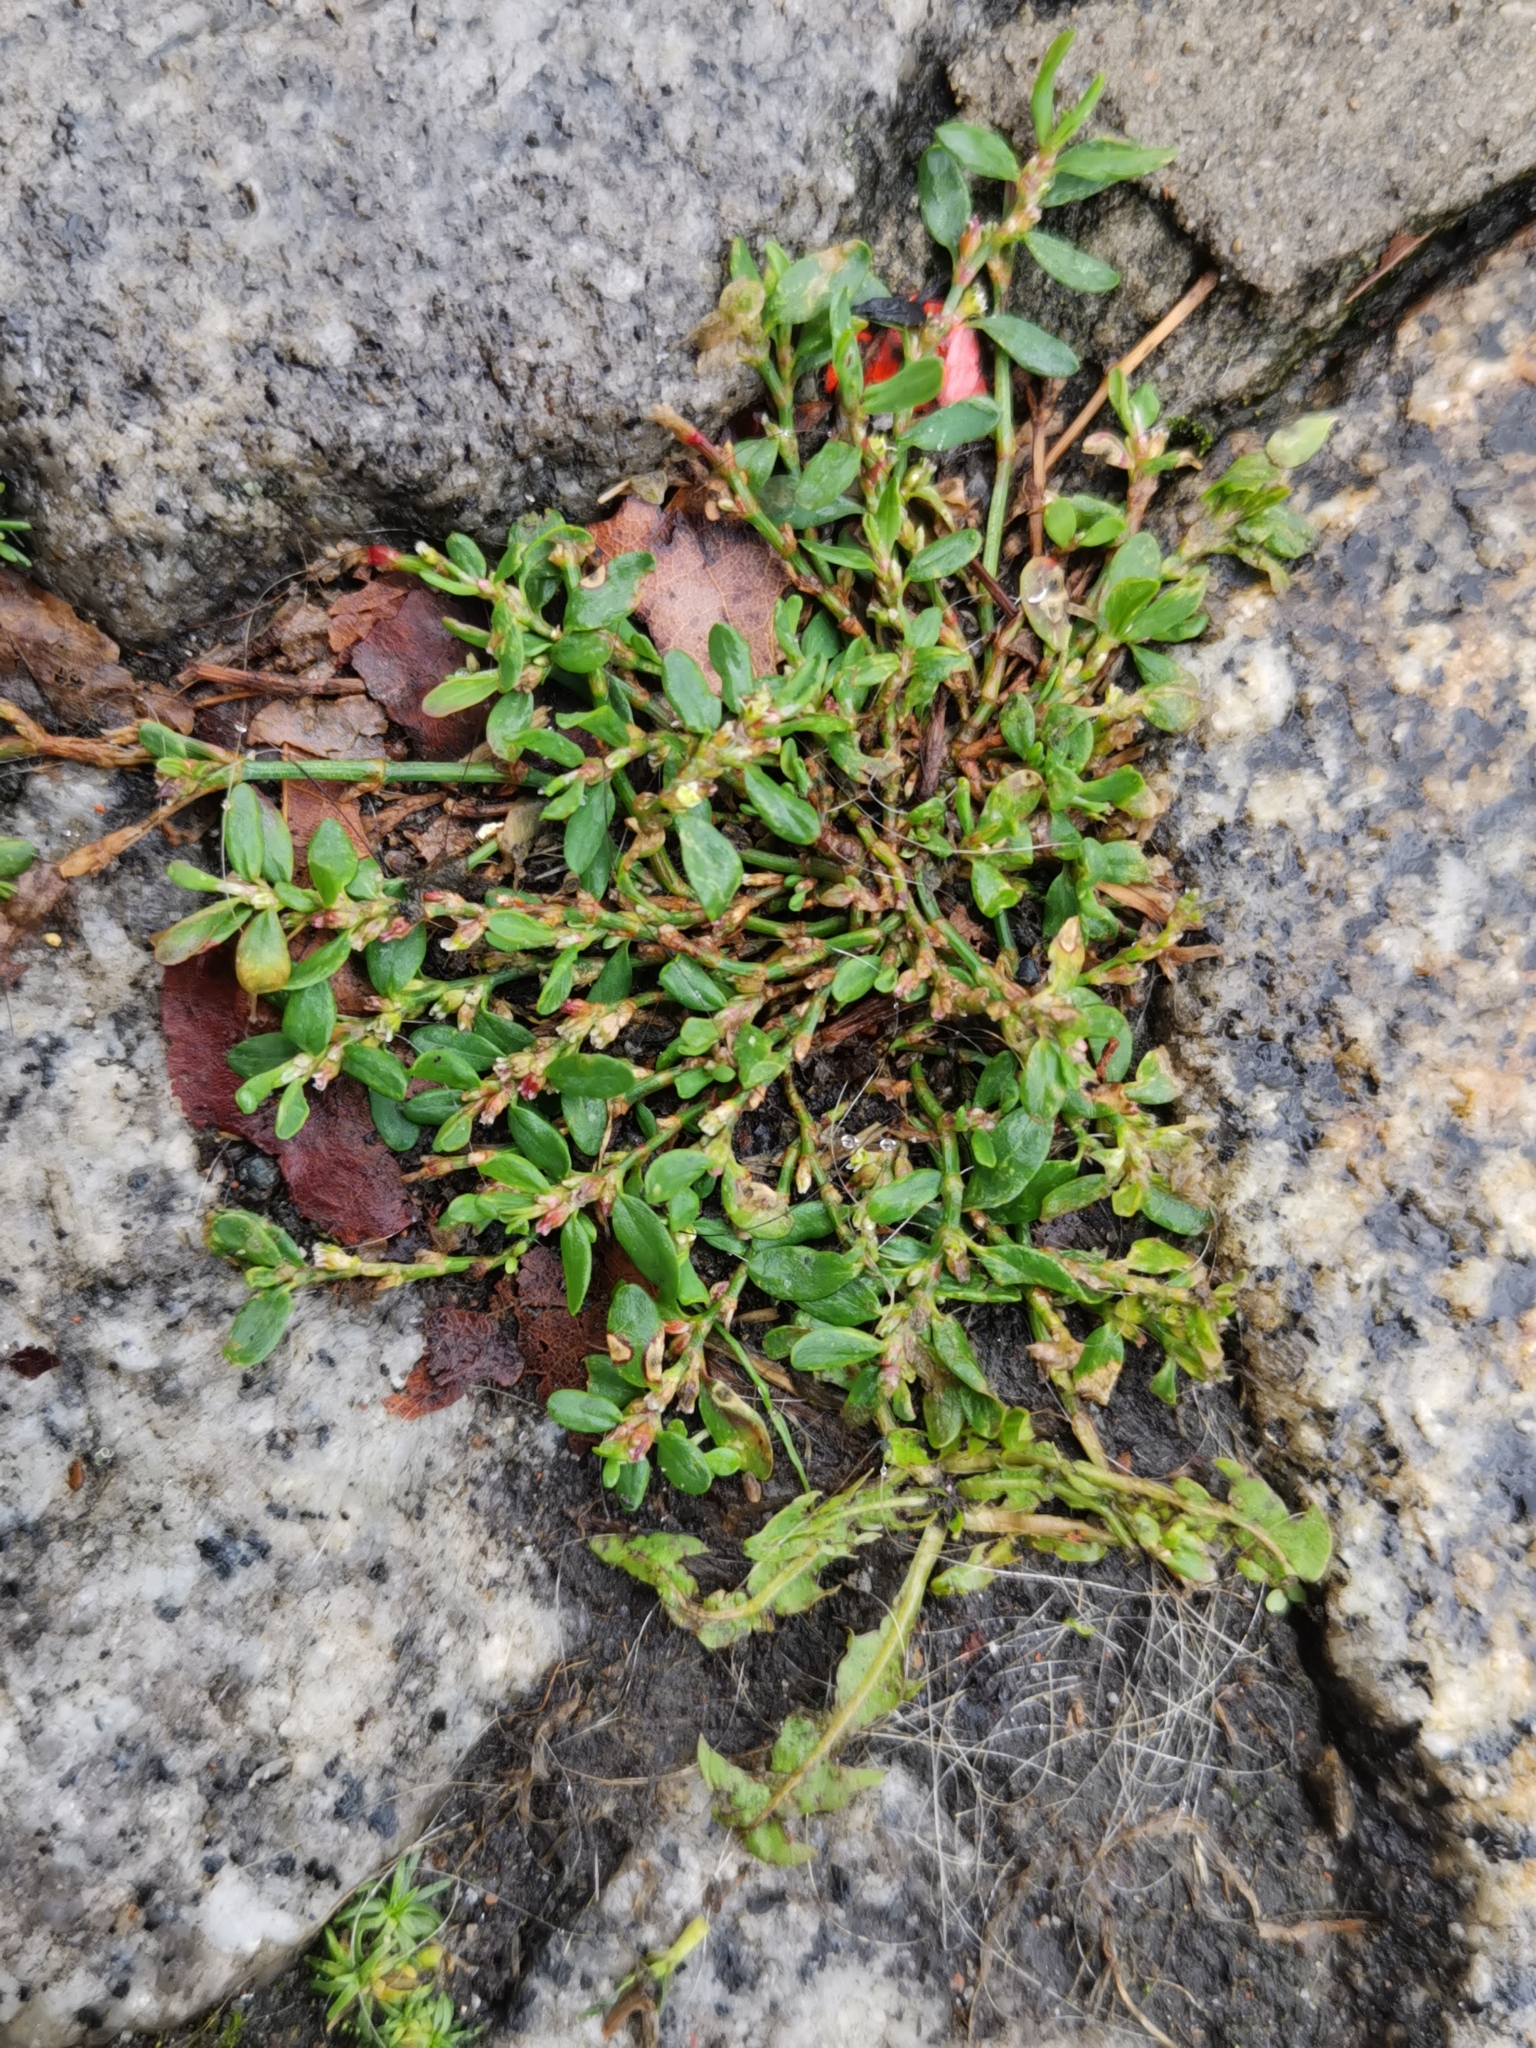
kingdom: Plantae
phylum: Tracheophyta
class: Magnoliopsida
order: Caryophyllales
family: Polygonaceae
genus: Polygonum
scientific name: Polygonum aviculare
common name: Prostrate knotweed
